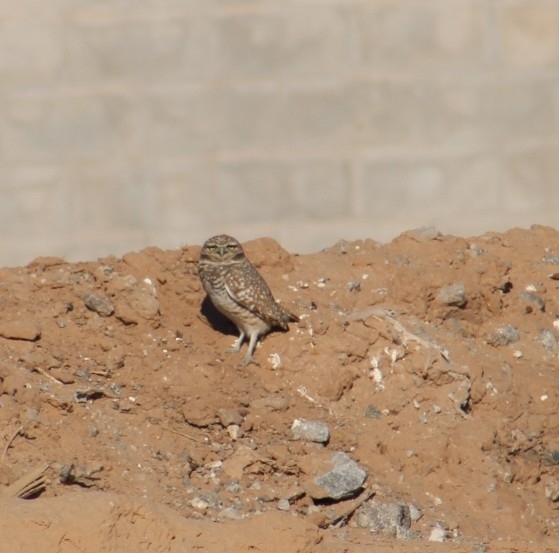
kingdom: Animalia
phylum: Chordata
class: Aves
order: Strigiformes
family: Strigidae
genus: Athene
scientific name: Athene cunicularia
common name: Burrowing owl
